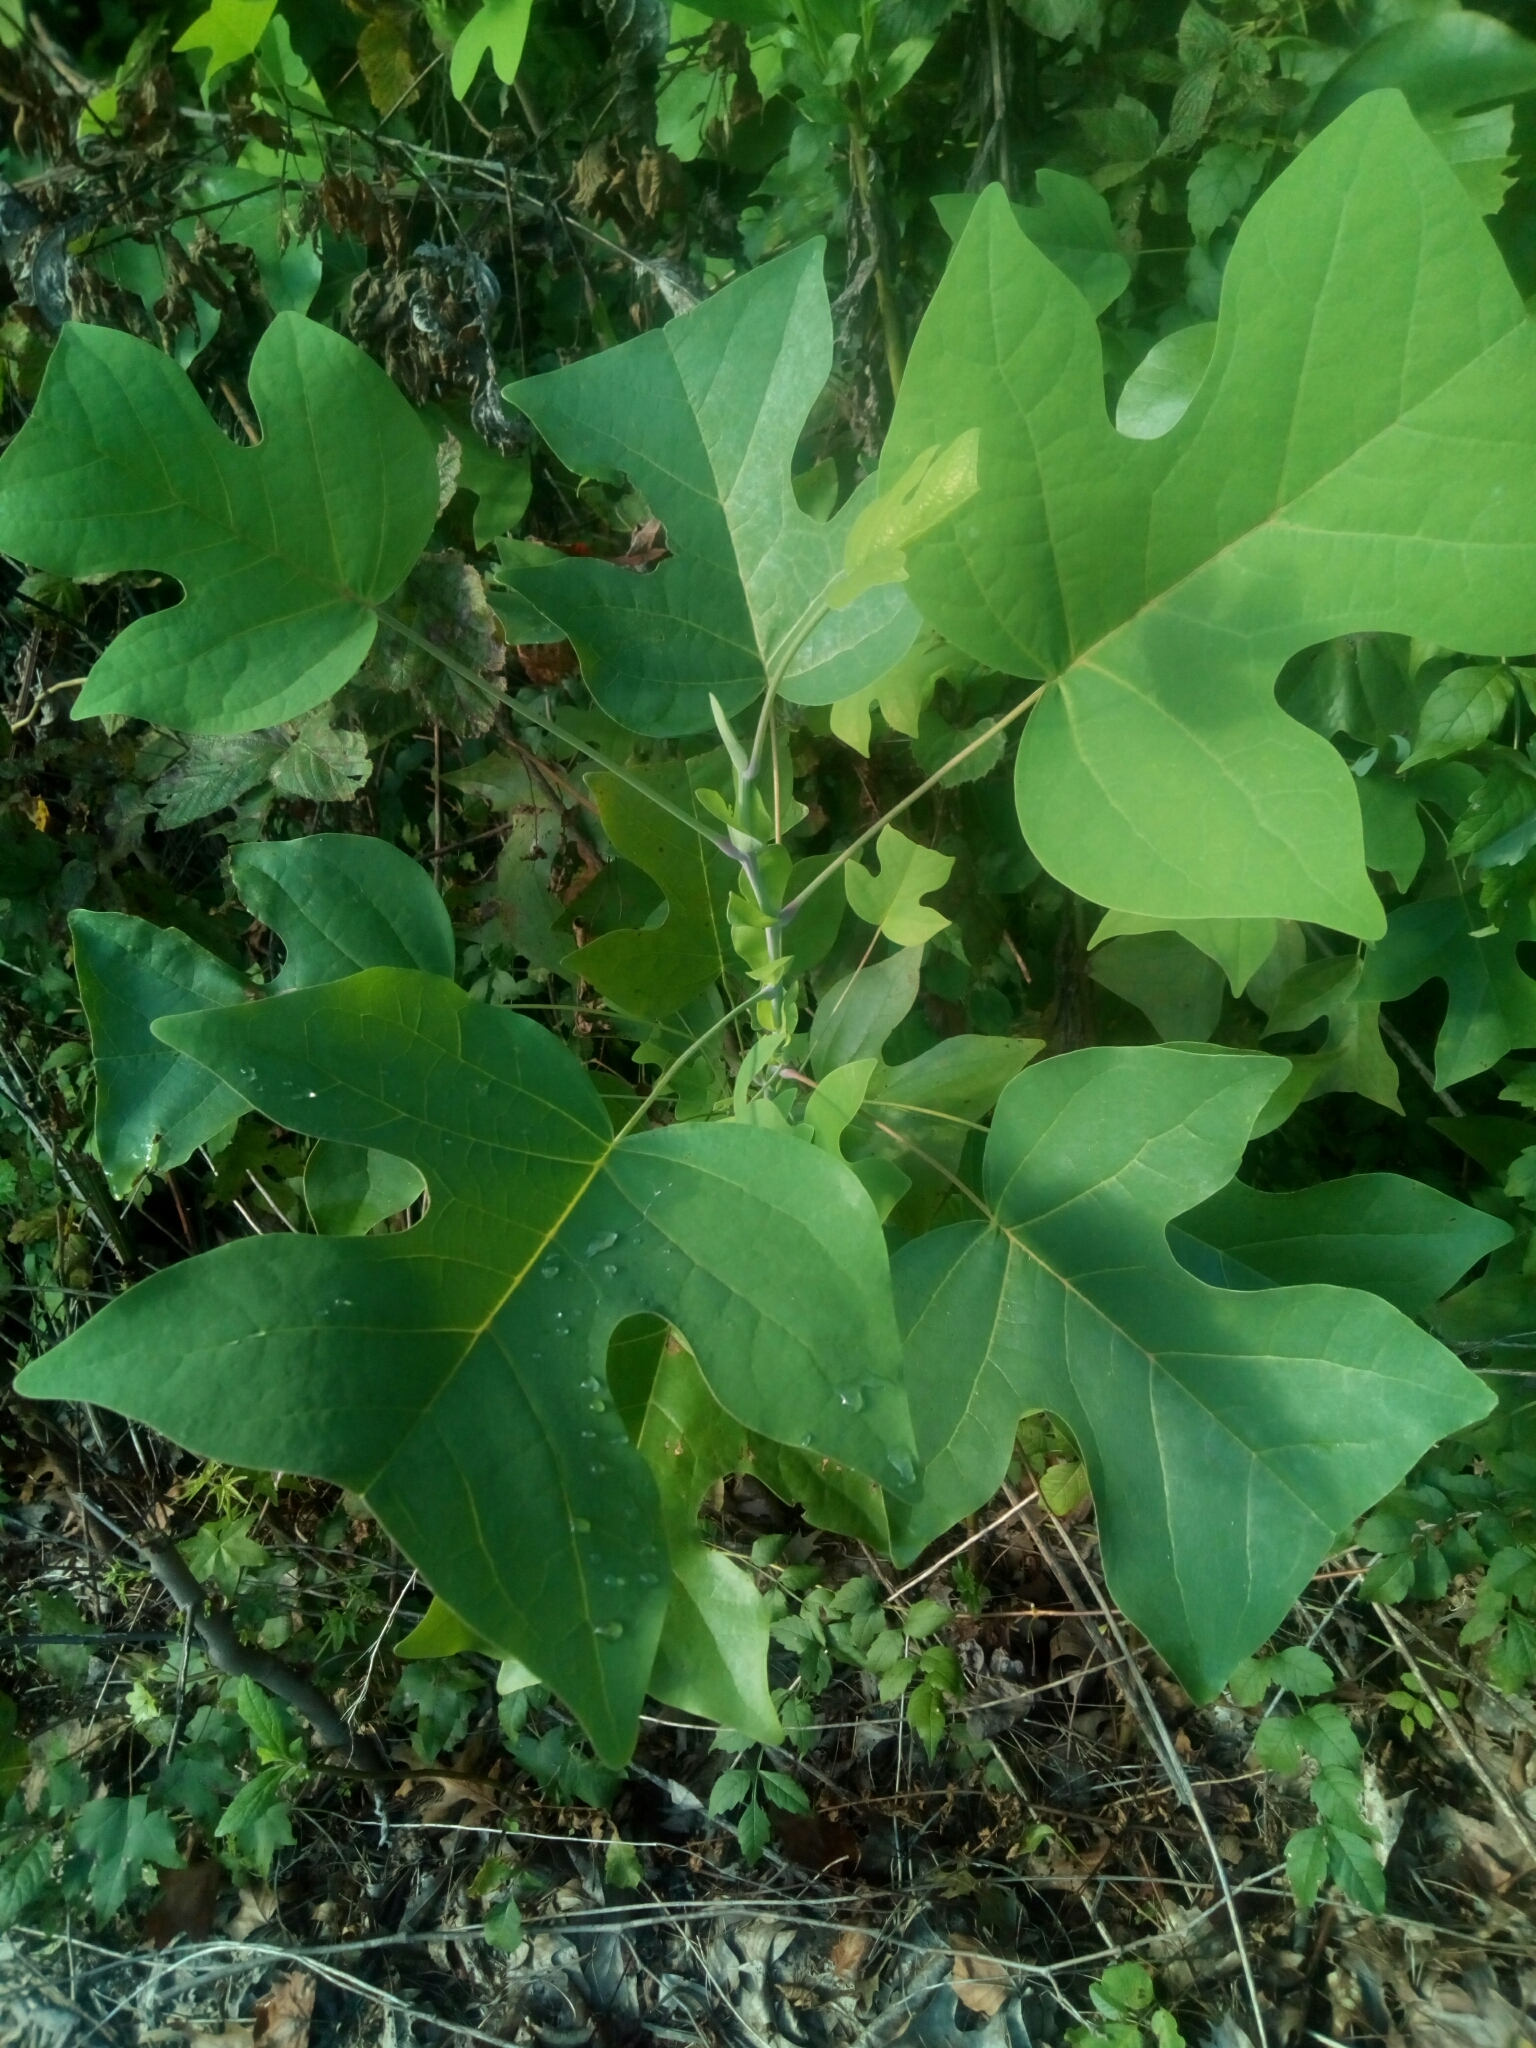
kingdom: Plantae
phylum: Tracheophyta
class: Magnoliopsida
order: Magnoliales
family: Magnoliaceae
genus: Liriodendron
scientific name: Liriodendron tulipifera
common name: Tulip tree
